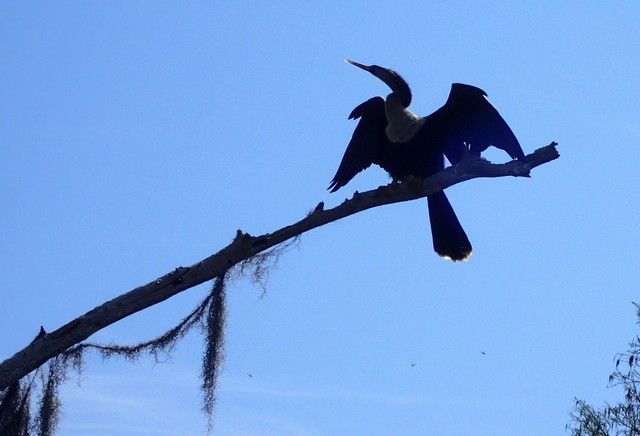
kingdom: Animalia
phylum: Chordata
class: Aves
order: Suliformes
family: Anhingidae
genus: Anhinga
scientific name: Anhinga anhinga
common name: Anhinga
